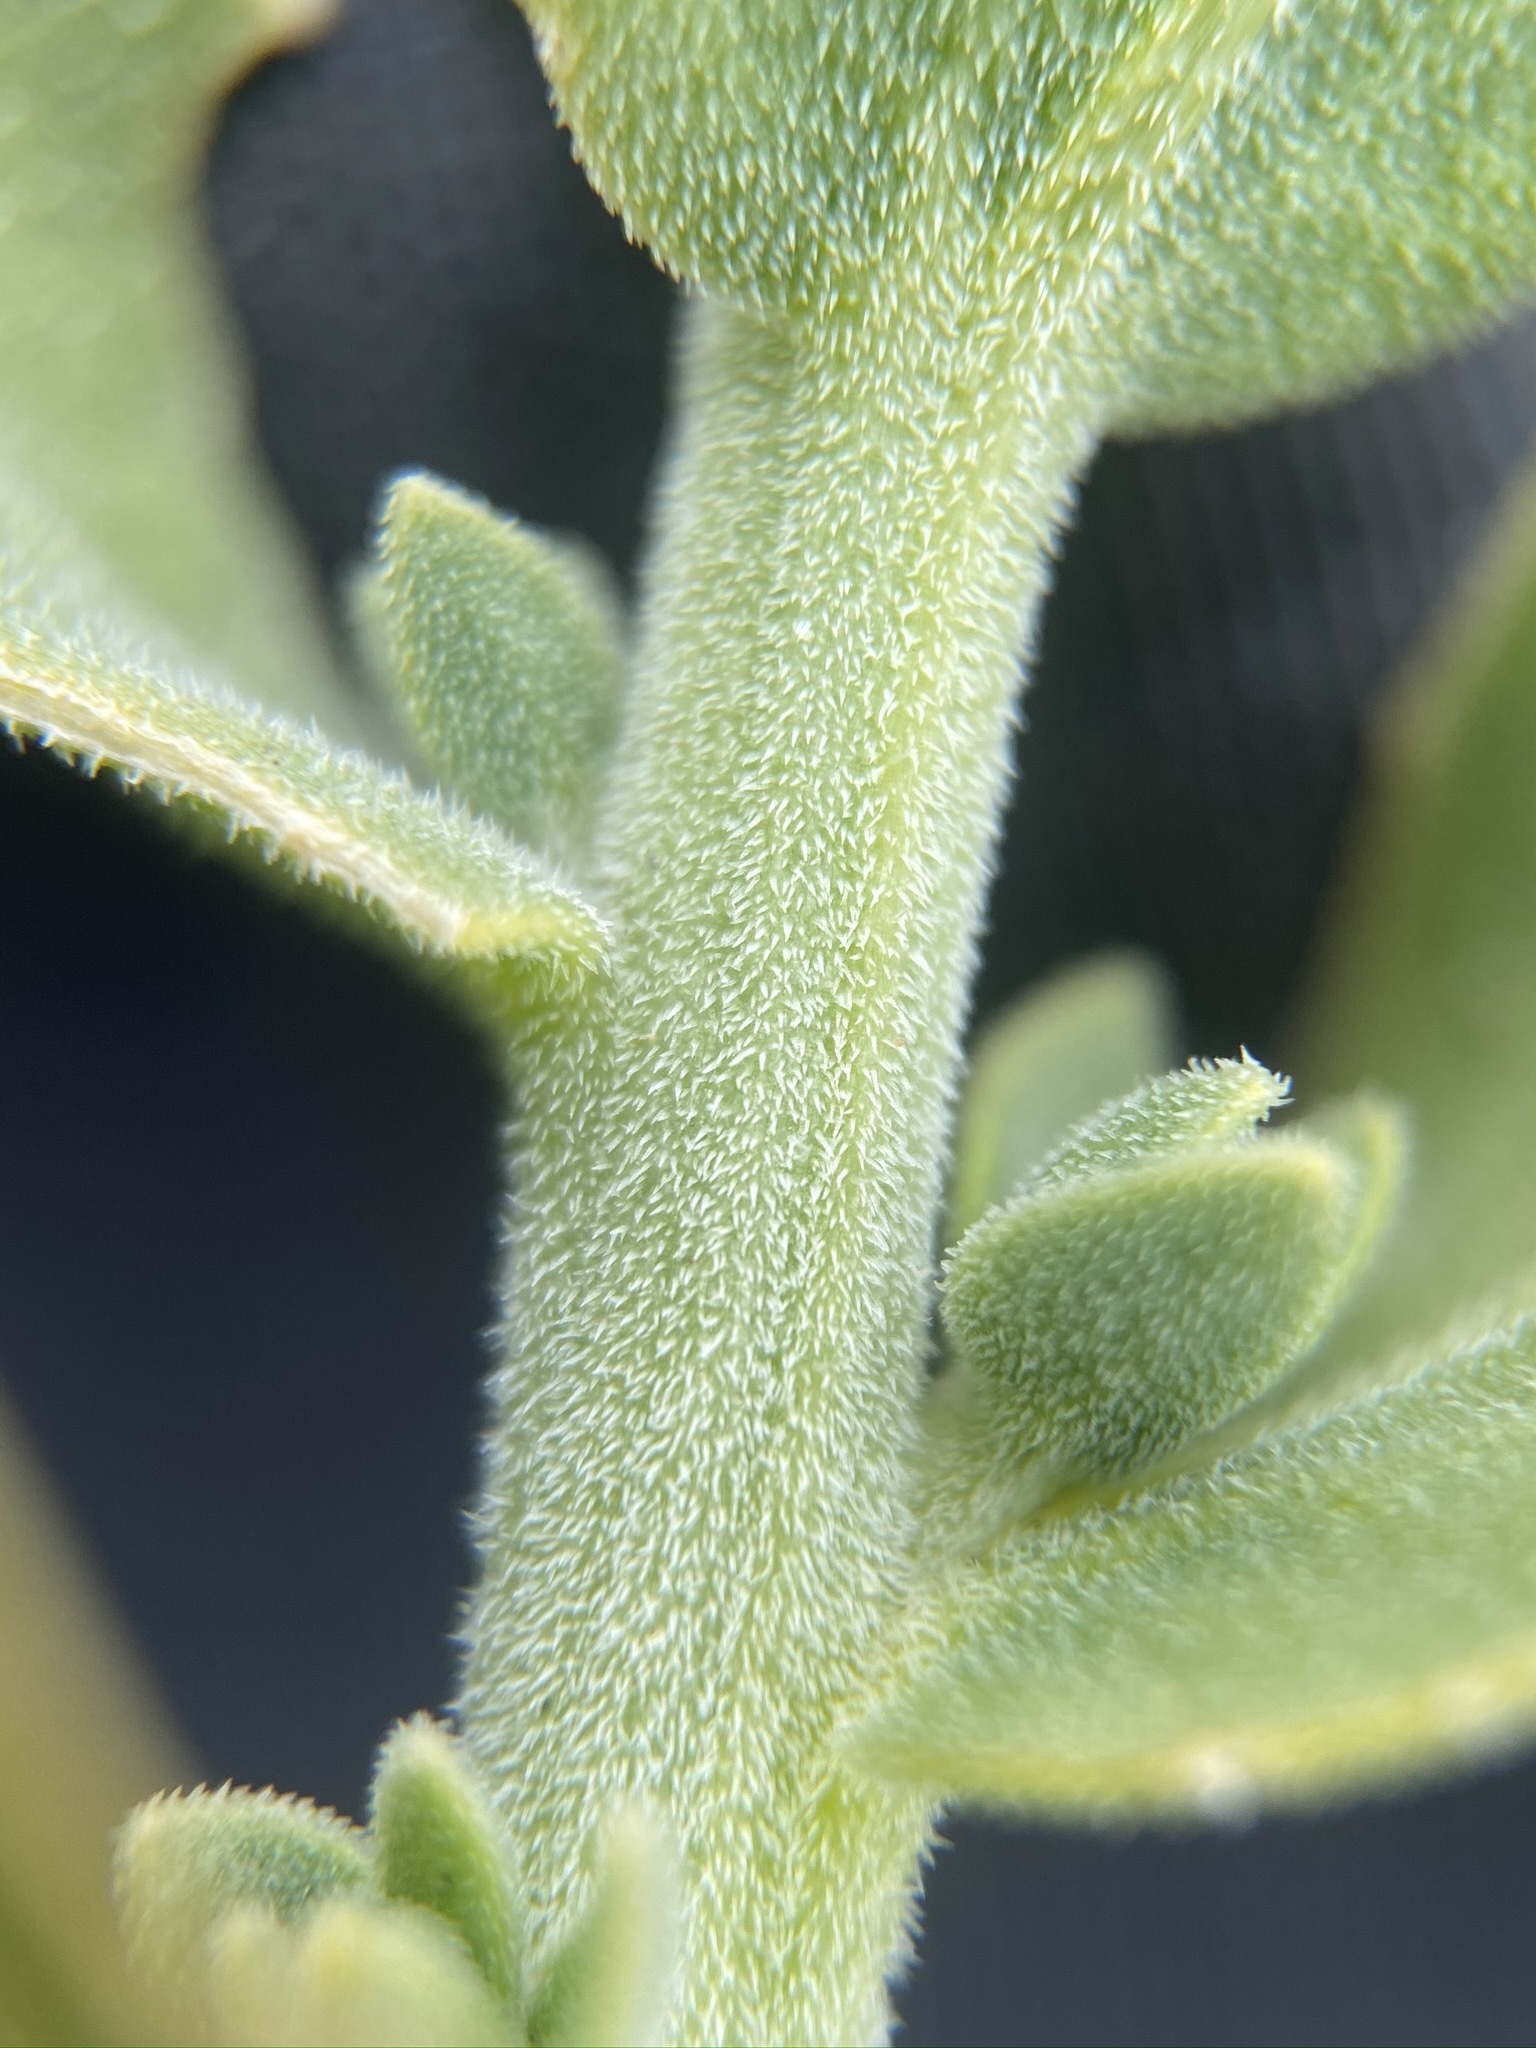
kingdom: Plantae
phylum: Tracheophyta
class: Magnoliopsida
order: Cornales
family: Loasaceae
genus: Petalonyx
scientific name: Petalonyx thurberi
